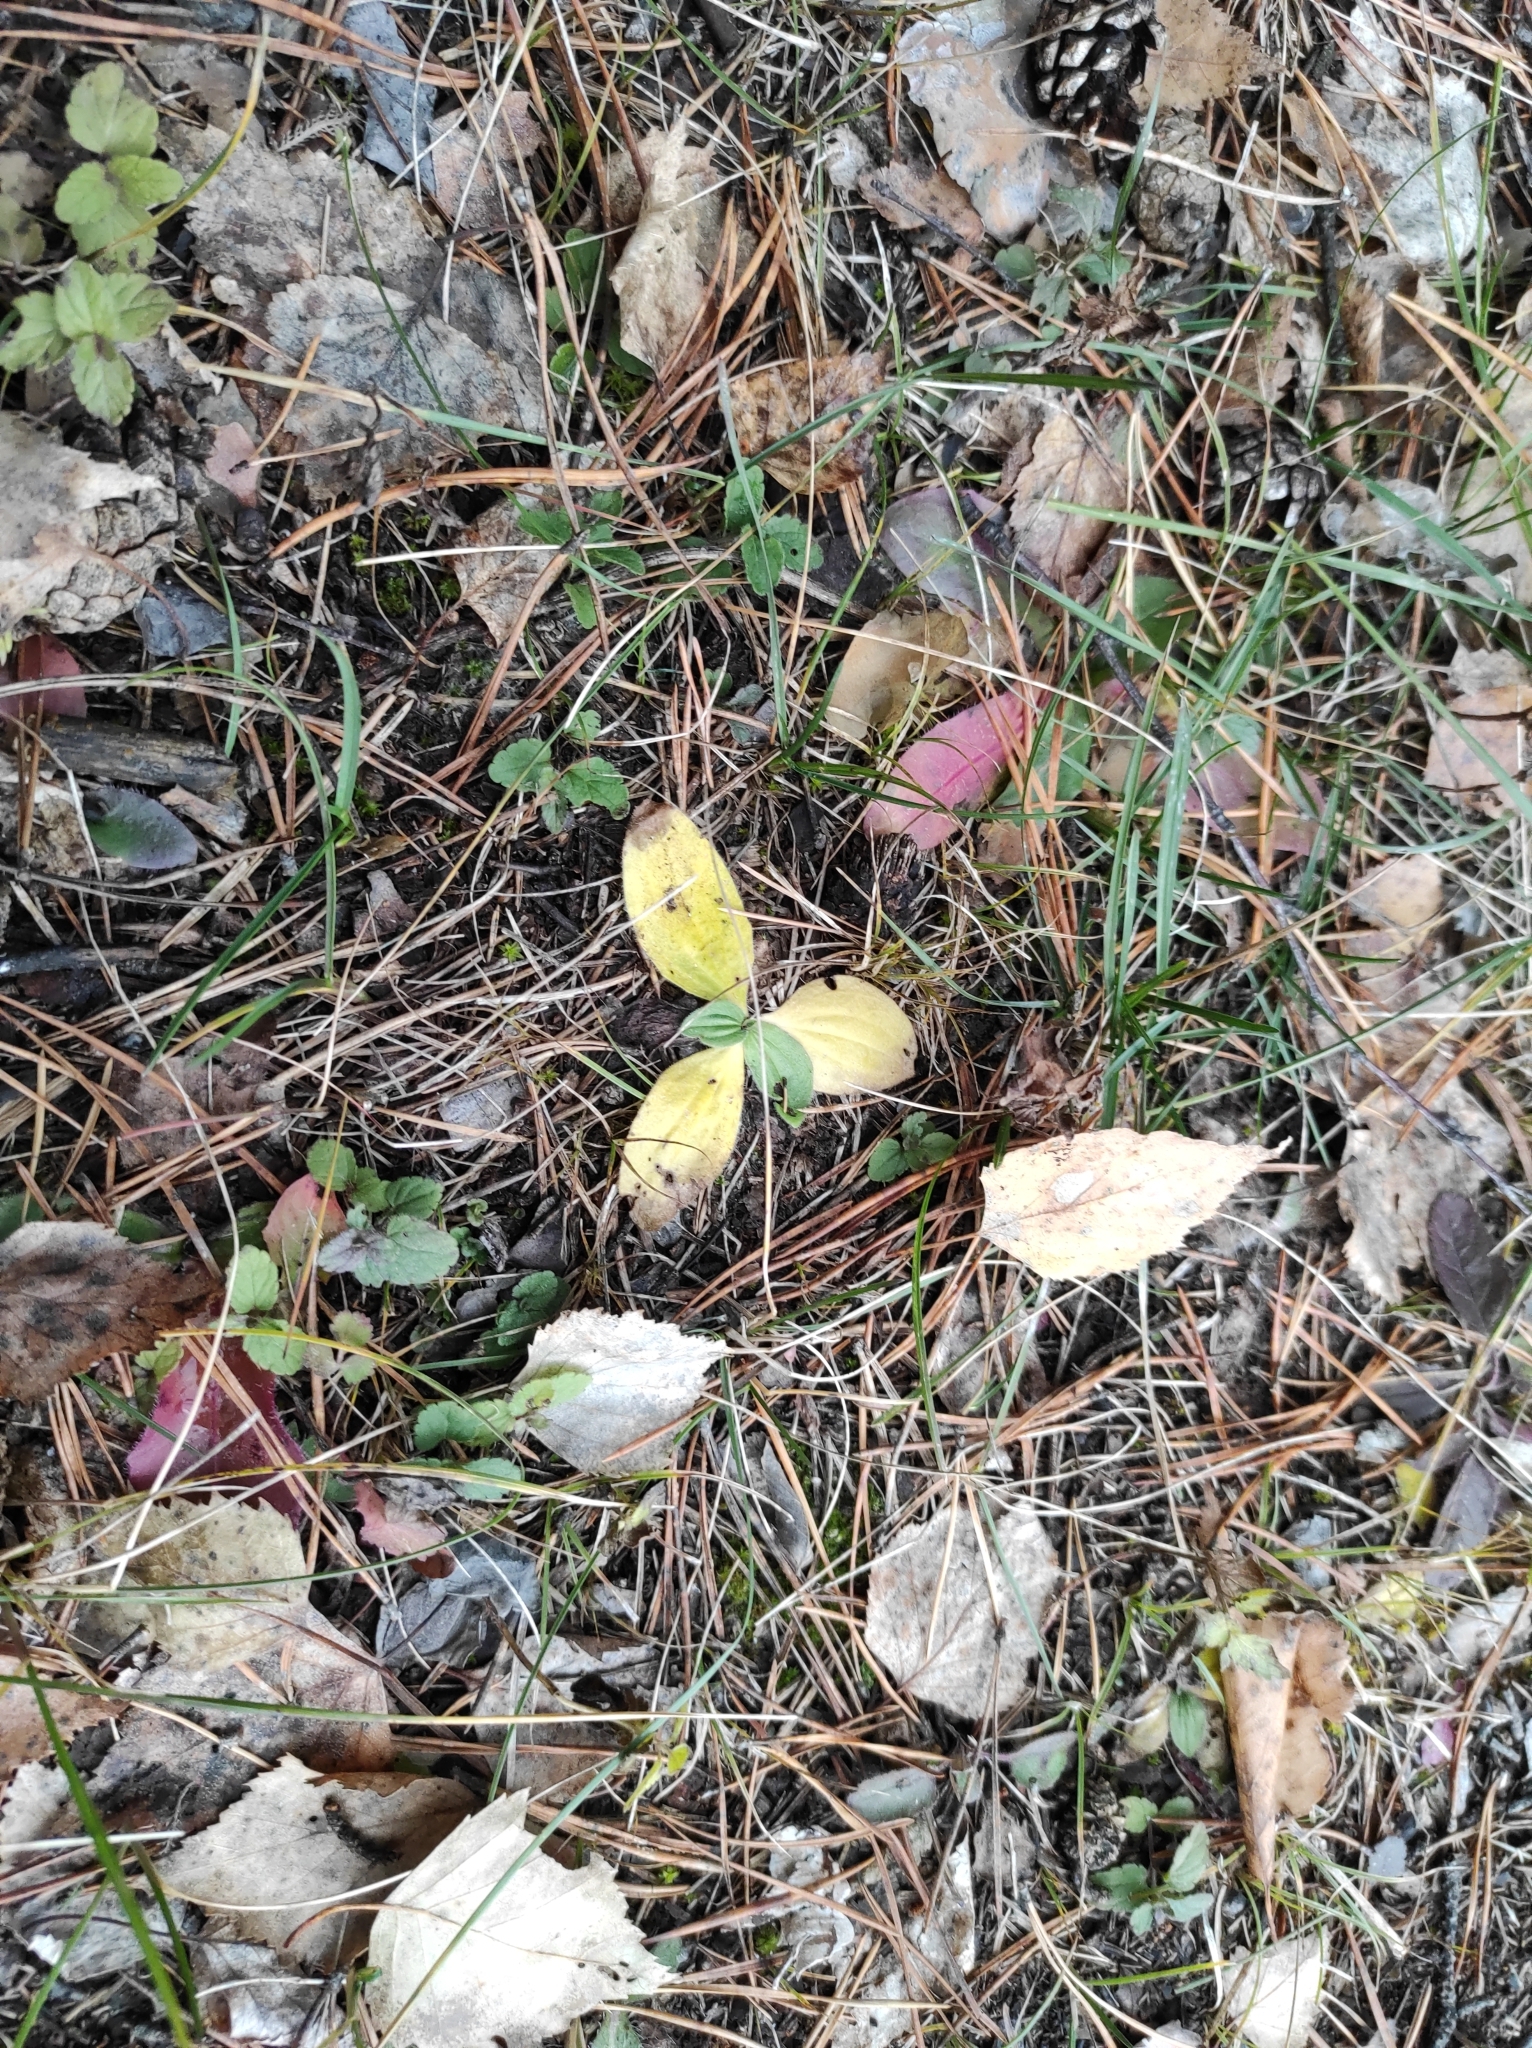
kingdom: Plantae
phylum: Tracheophyta
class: Magnoliopsida
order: Lamiales
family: Plantaginaceae
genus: Plantago
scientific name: Plantago media
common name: Hoary plantain
